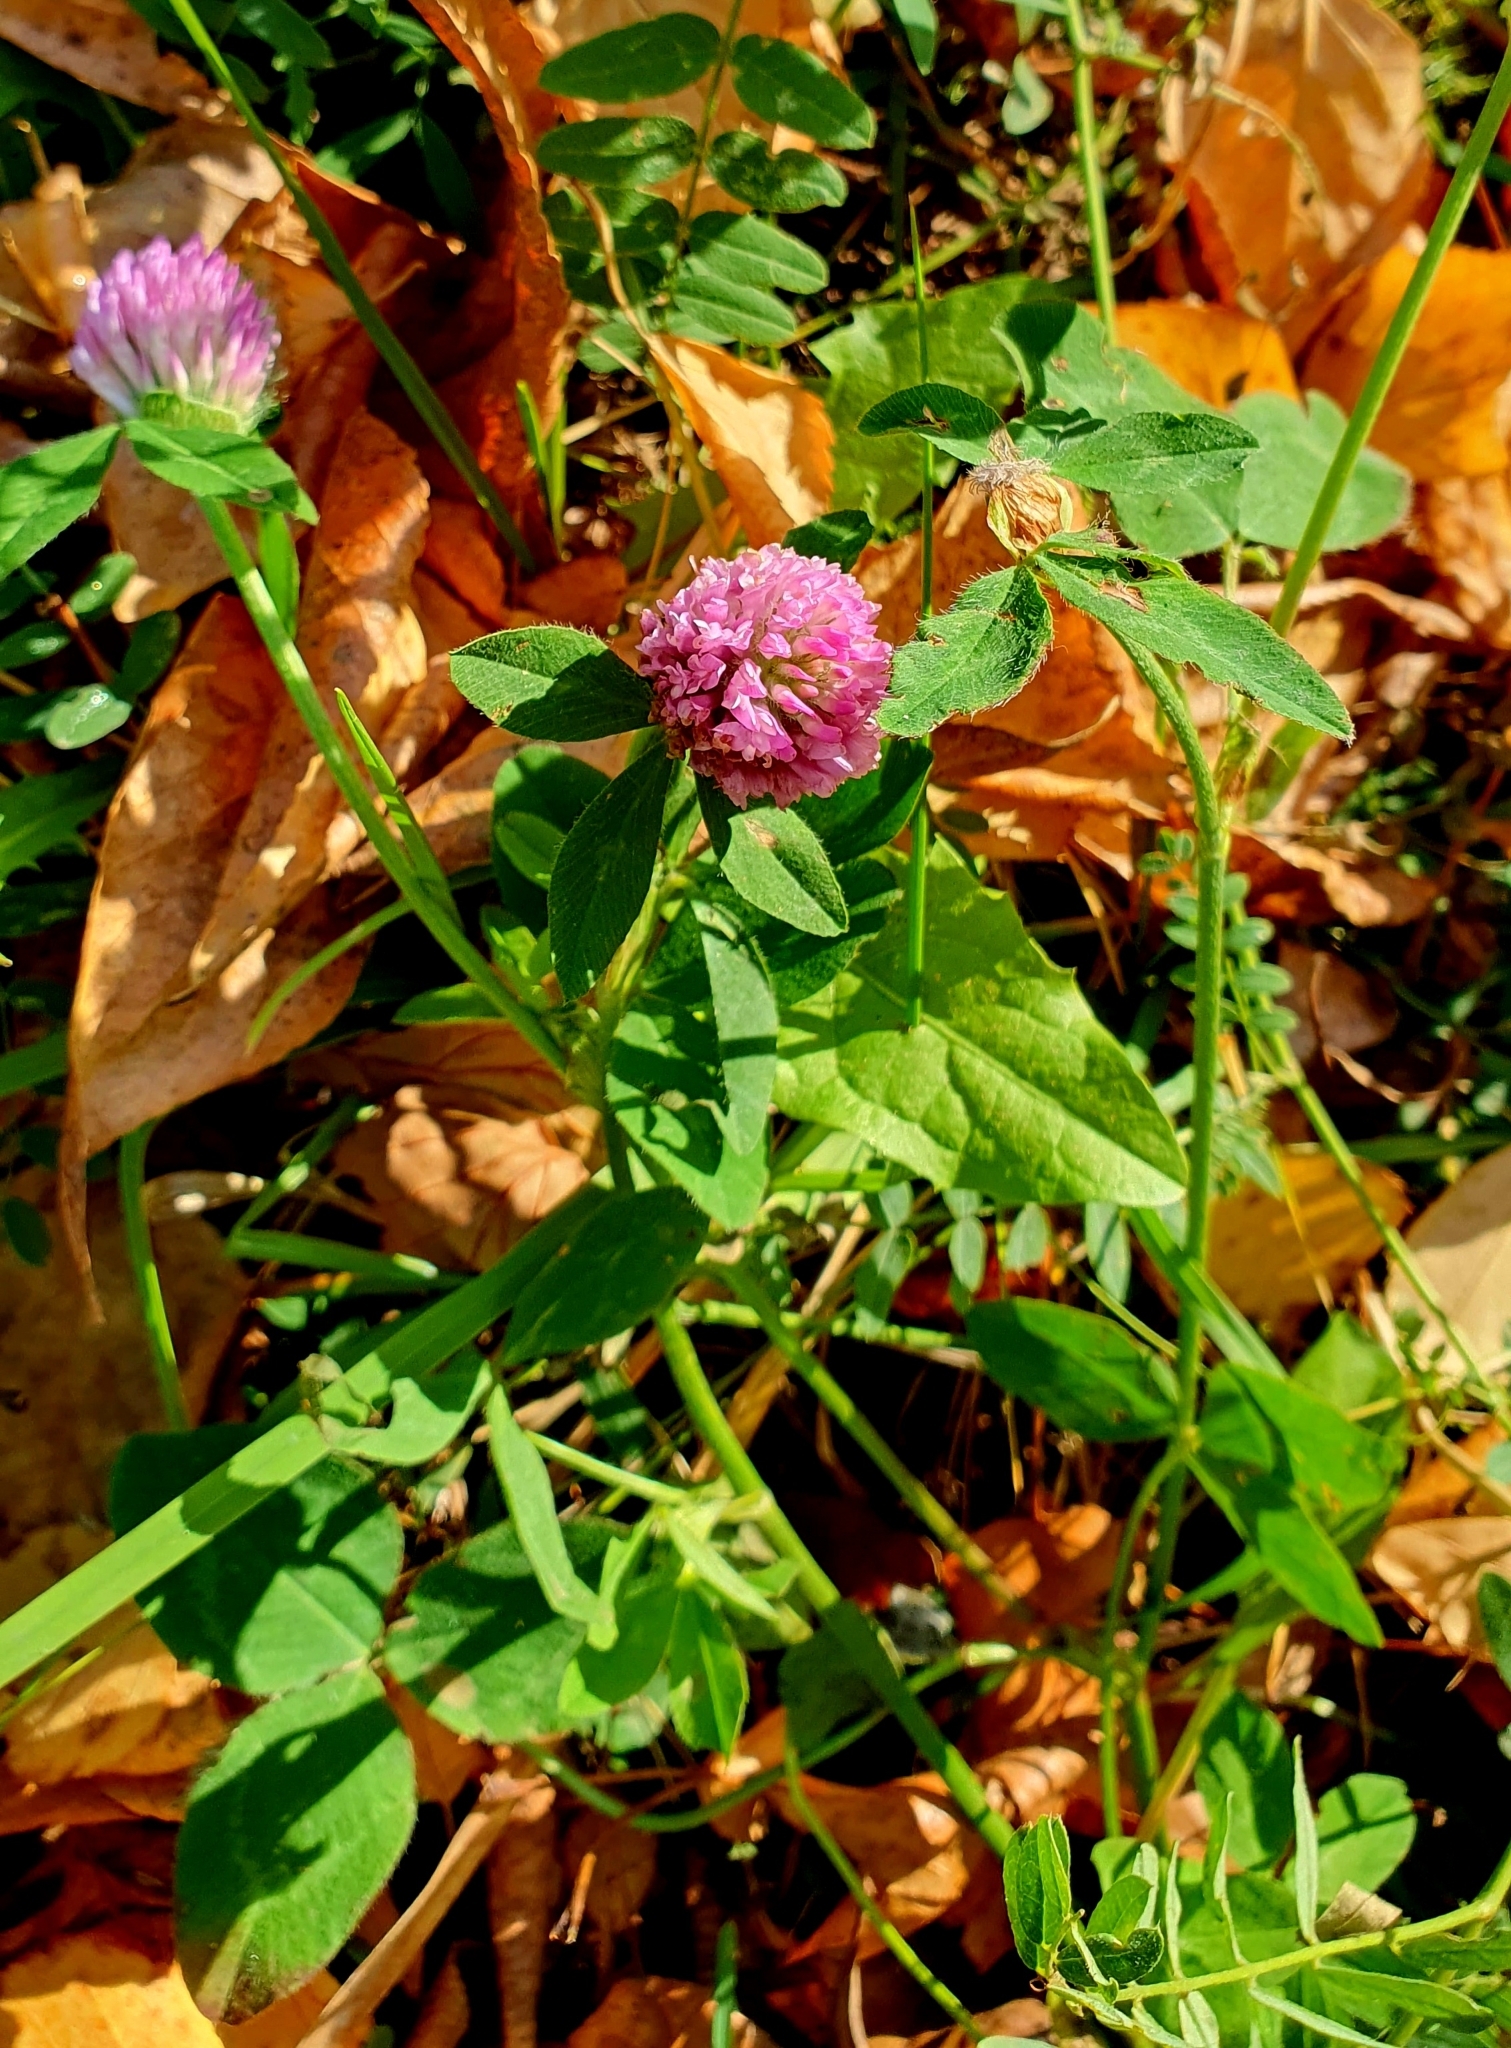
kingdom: Plantae
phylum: Tracheophyta
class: Magnoliopsida
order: Fabales
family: Fabaceae
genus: Trifolium
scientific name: Trifolium pratense
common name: Red clover
